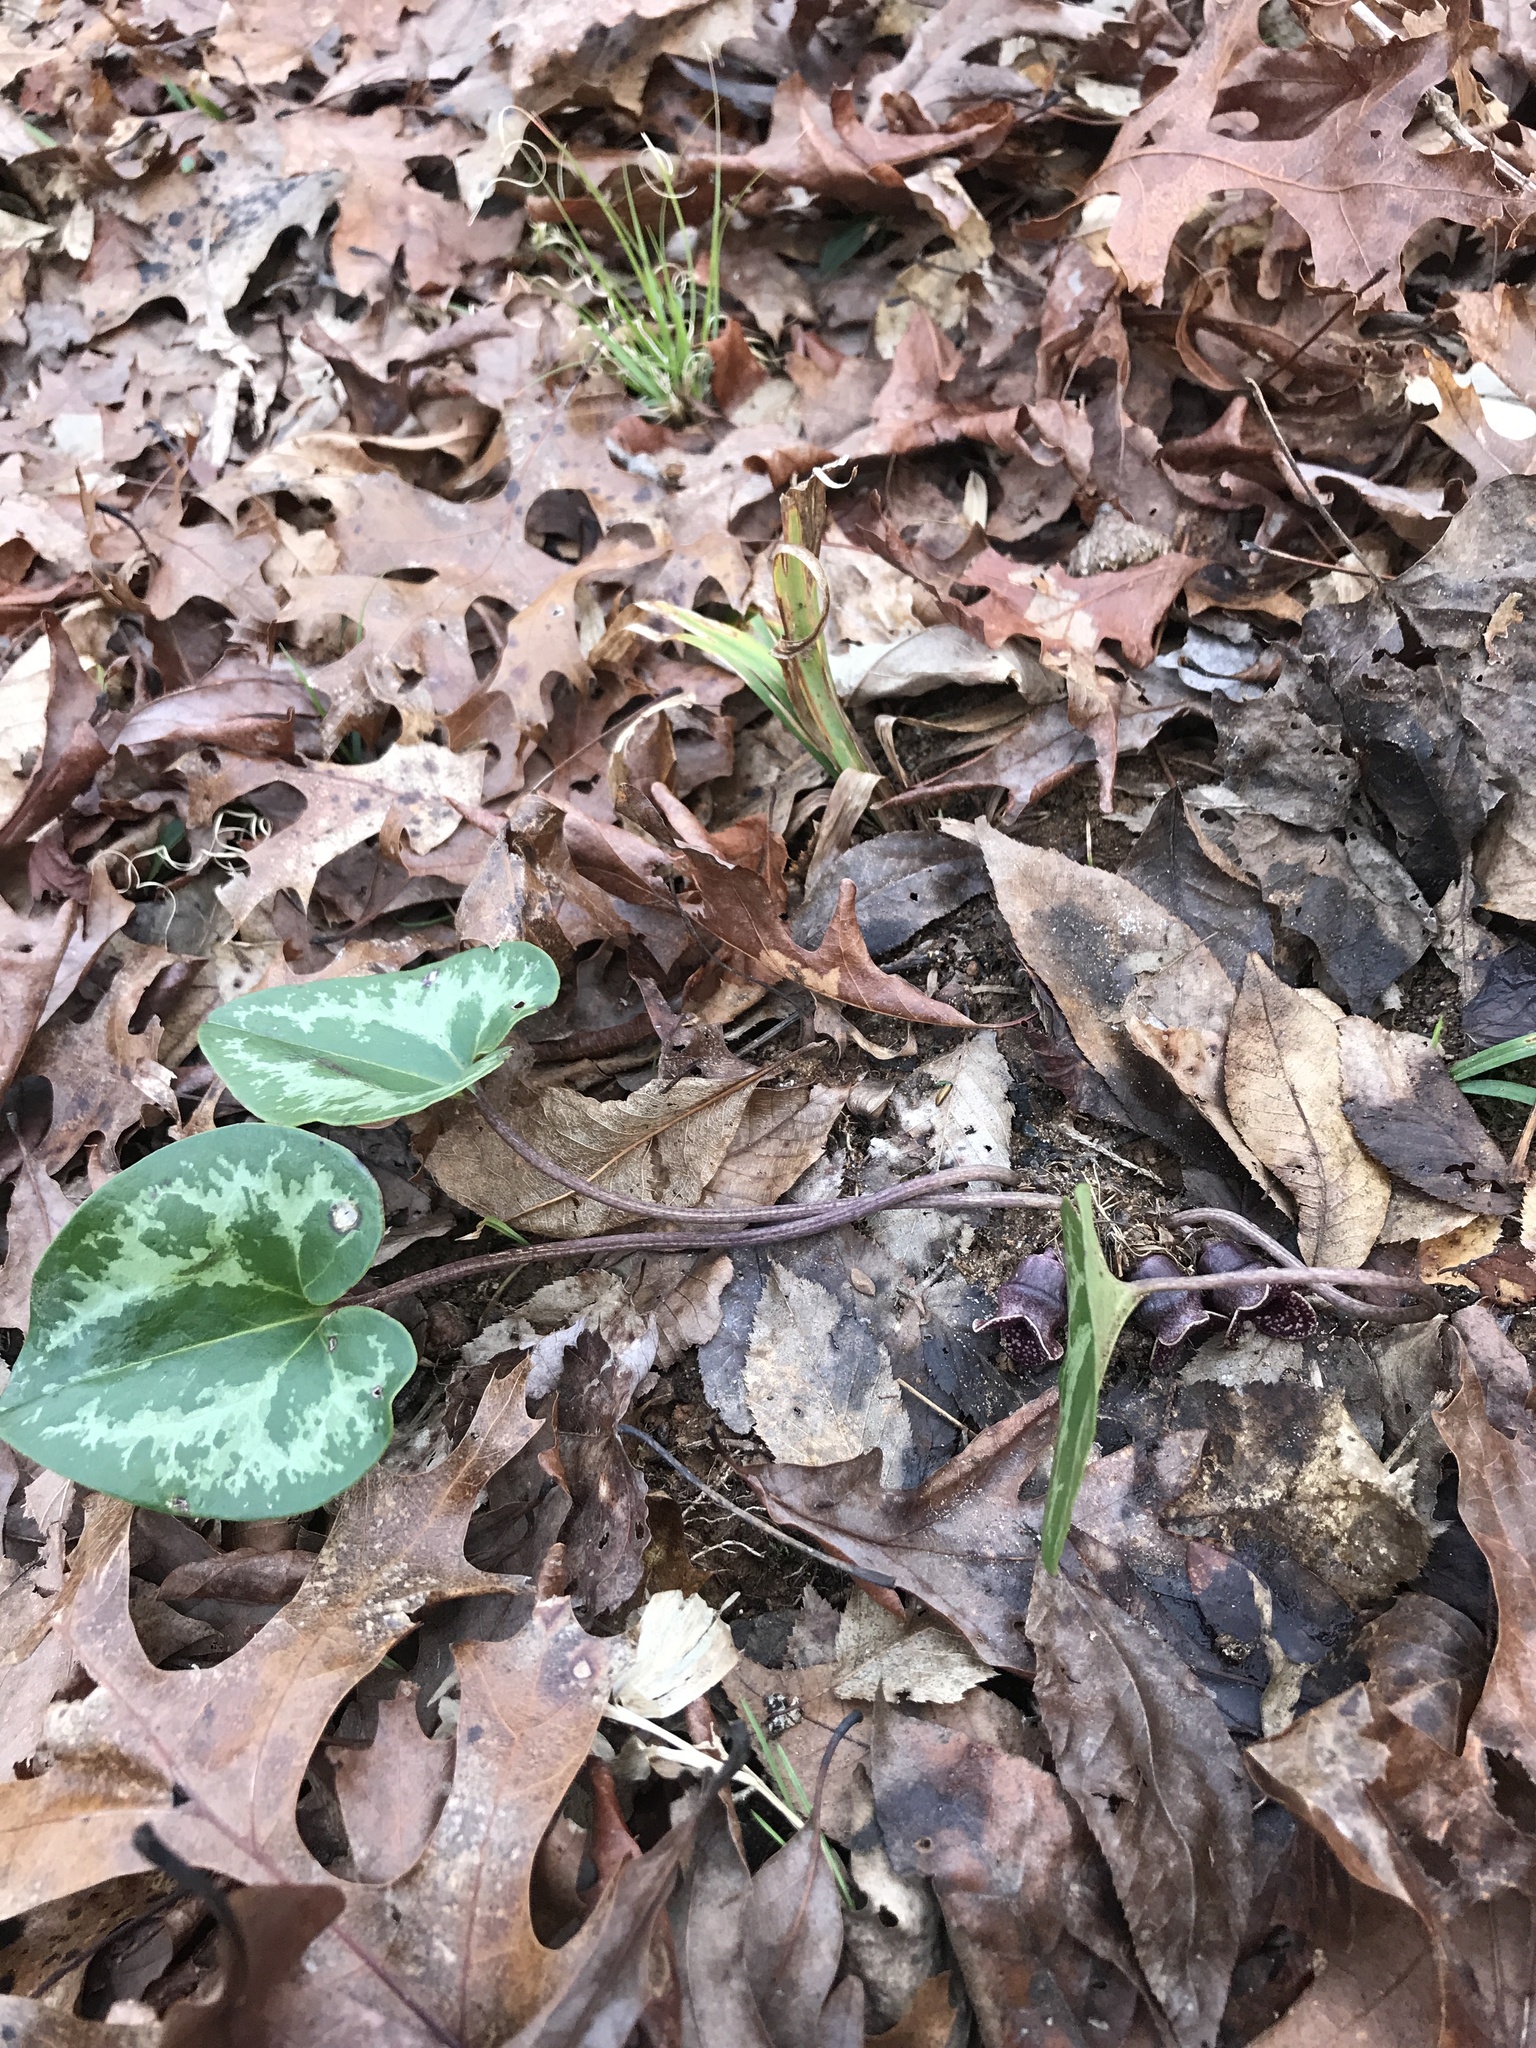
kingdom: Plantae
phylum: Tracheophyta
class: Magnoliopsida
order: Piperales
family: Aristolochiaceae
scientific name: Aristolochiaceae
